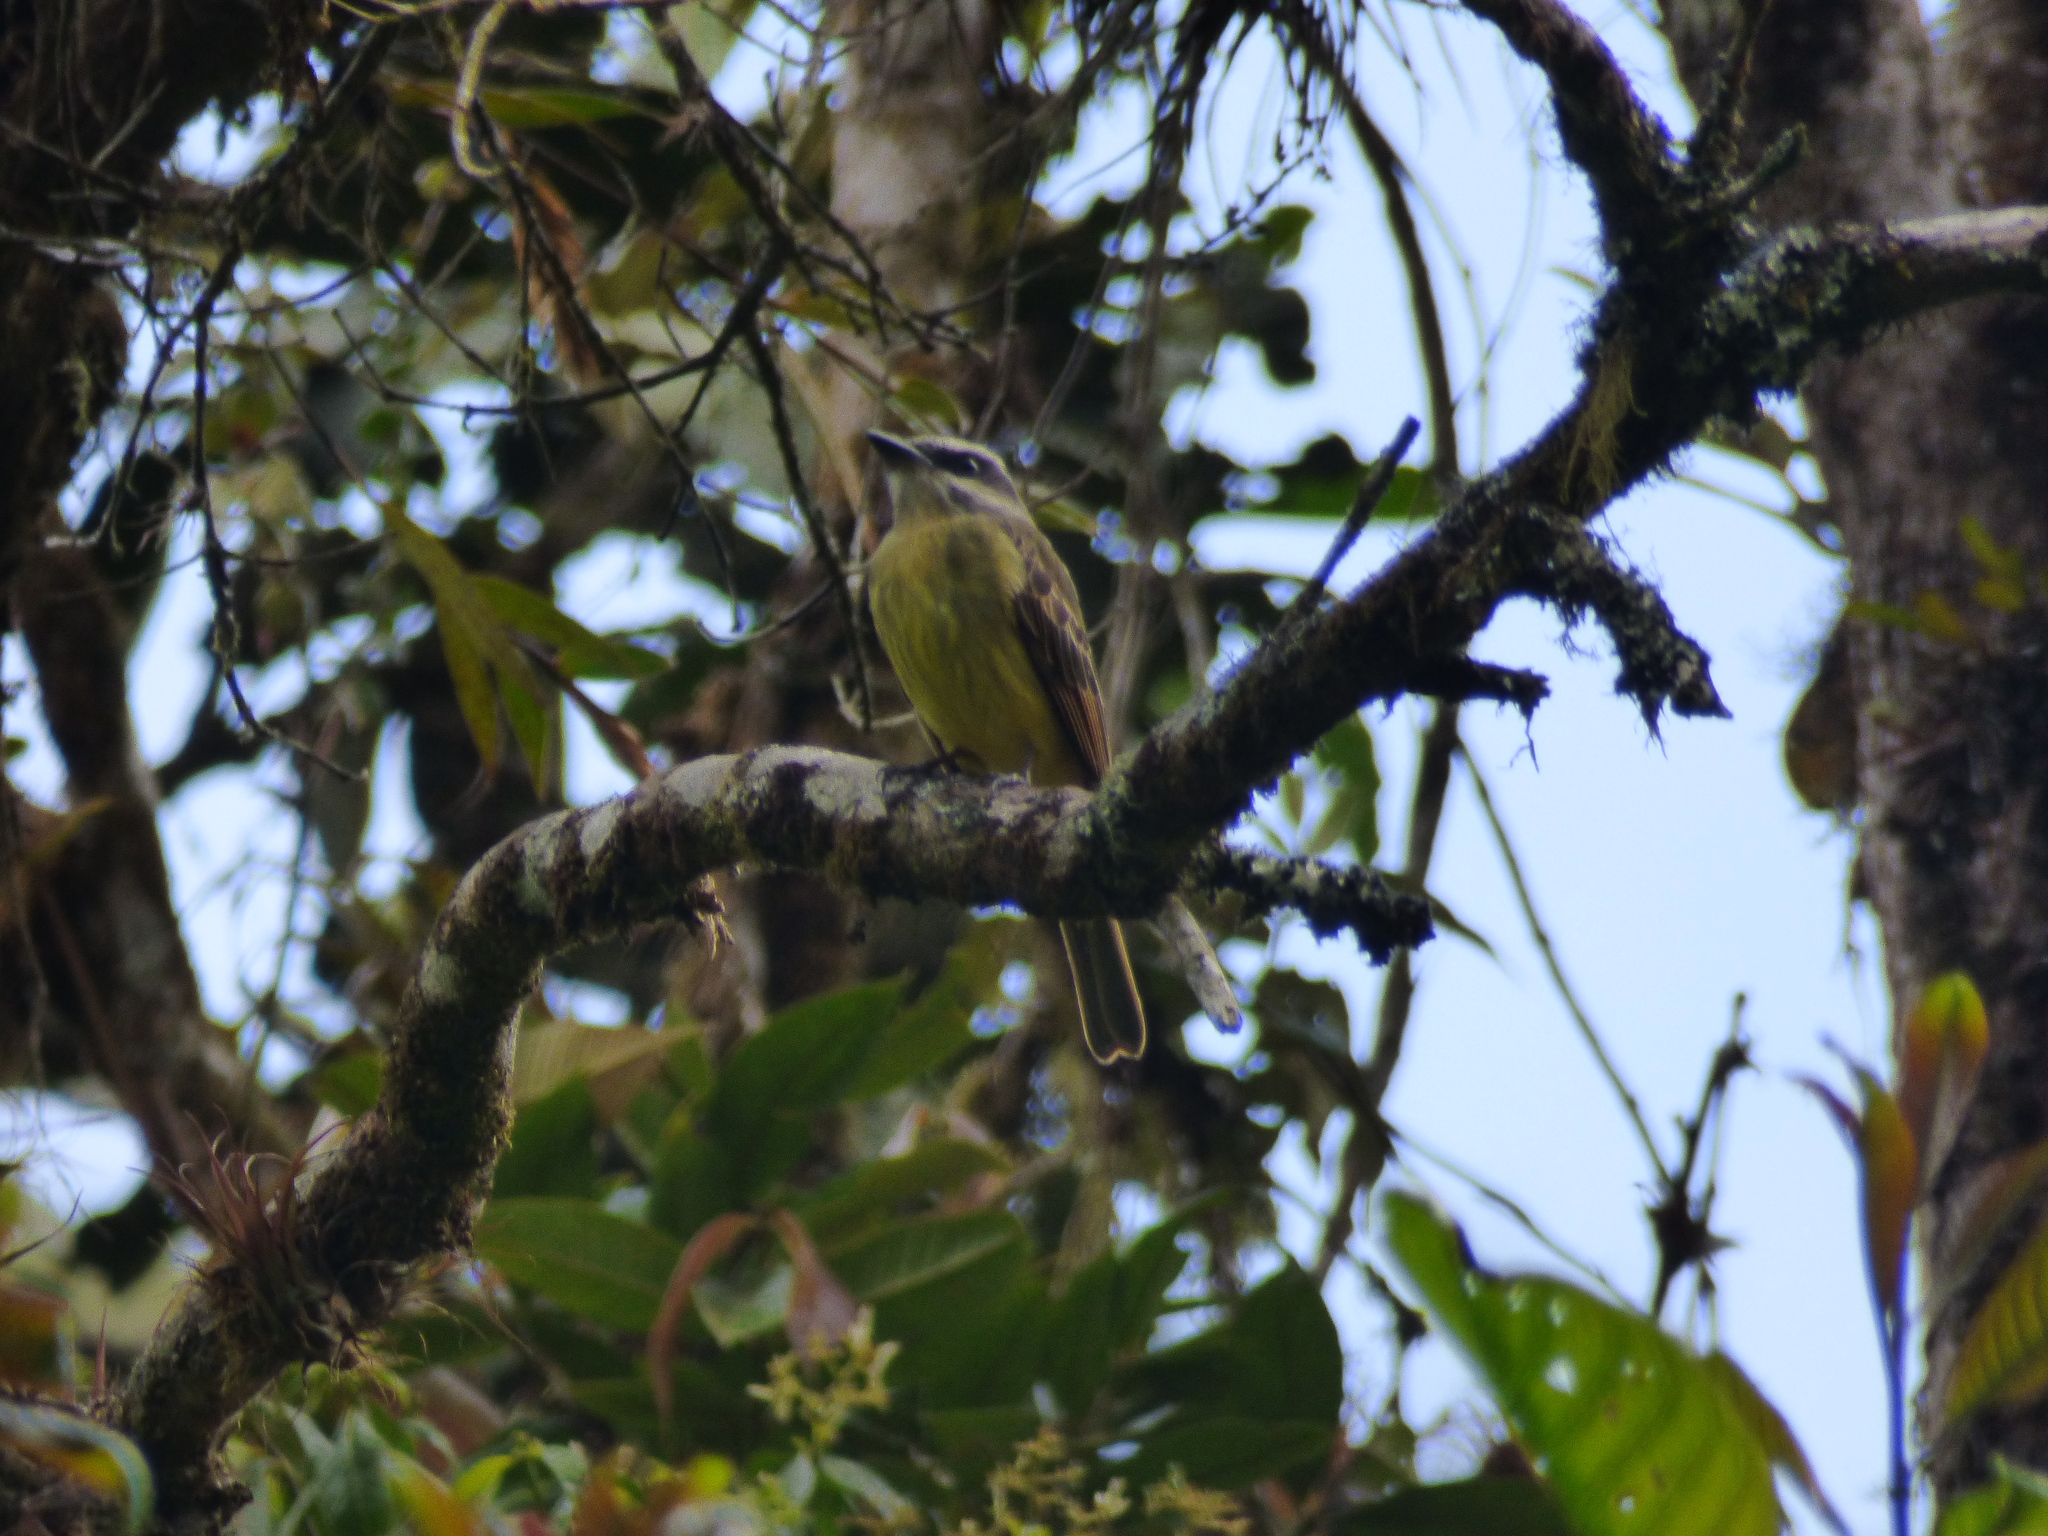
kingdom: Animalia
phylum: Chordata
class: Aves
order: Passeriformes
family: Tyrannidae
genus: Myiodynastes
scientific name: Myiodynastes hemichrysus
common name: Golden-bellied flycatcher
